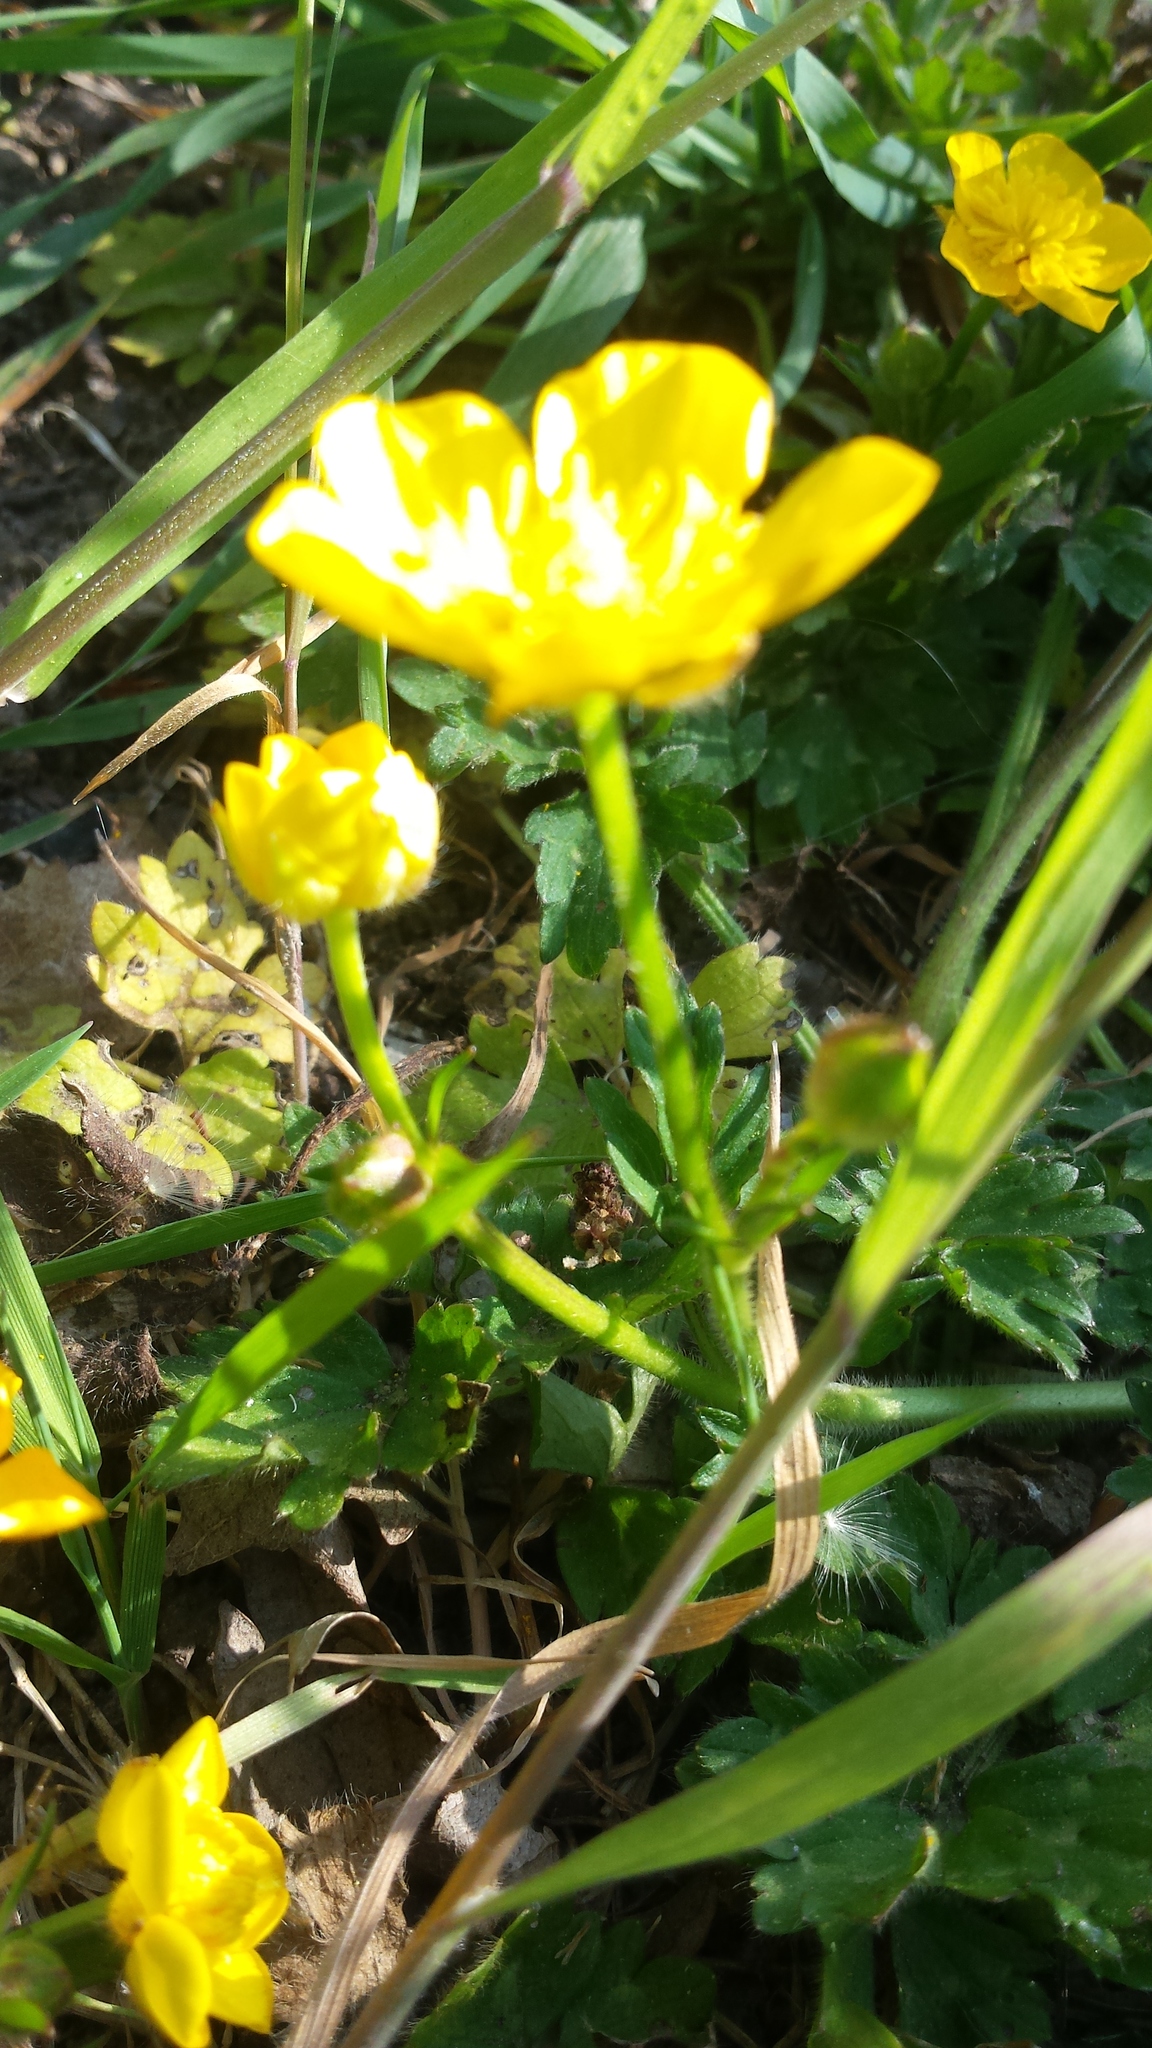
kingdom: Plantae
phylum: Tracheophyta
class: Magnoliopsida
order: Ranunculales
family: Ranunculaceae
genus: Ranunculus
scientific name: Ranunculus repens
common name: Creeping buttercup
